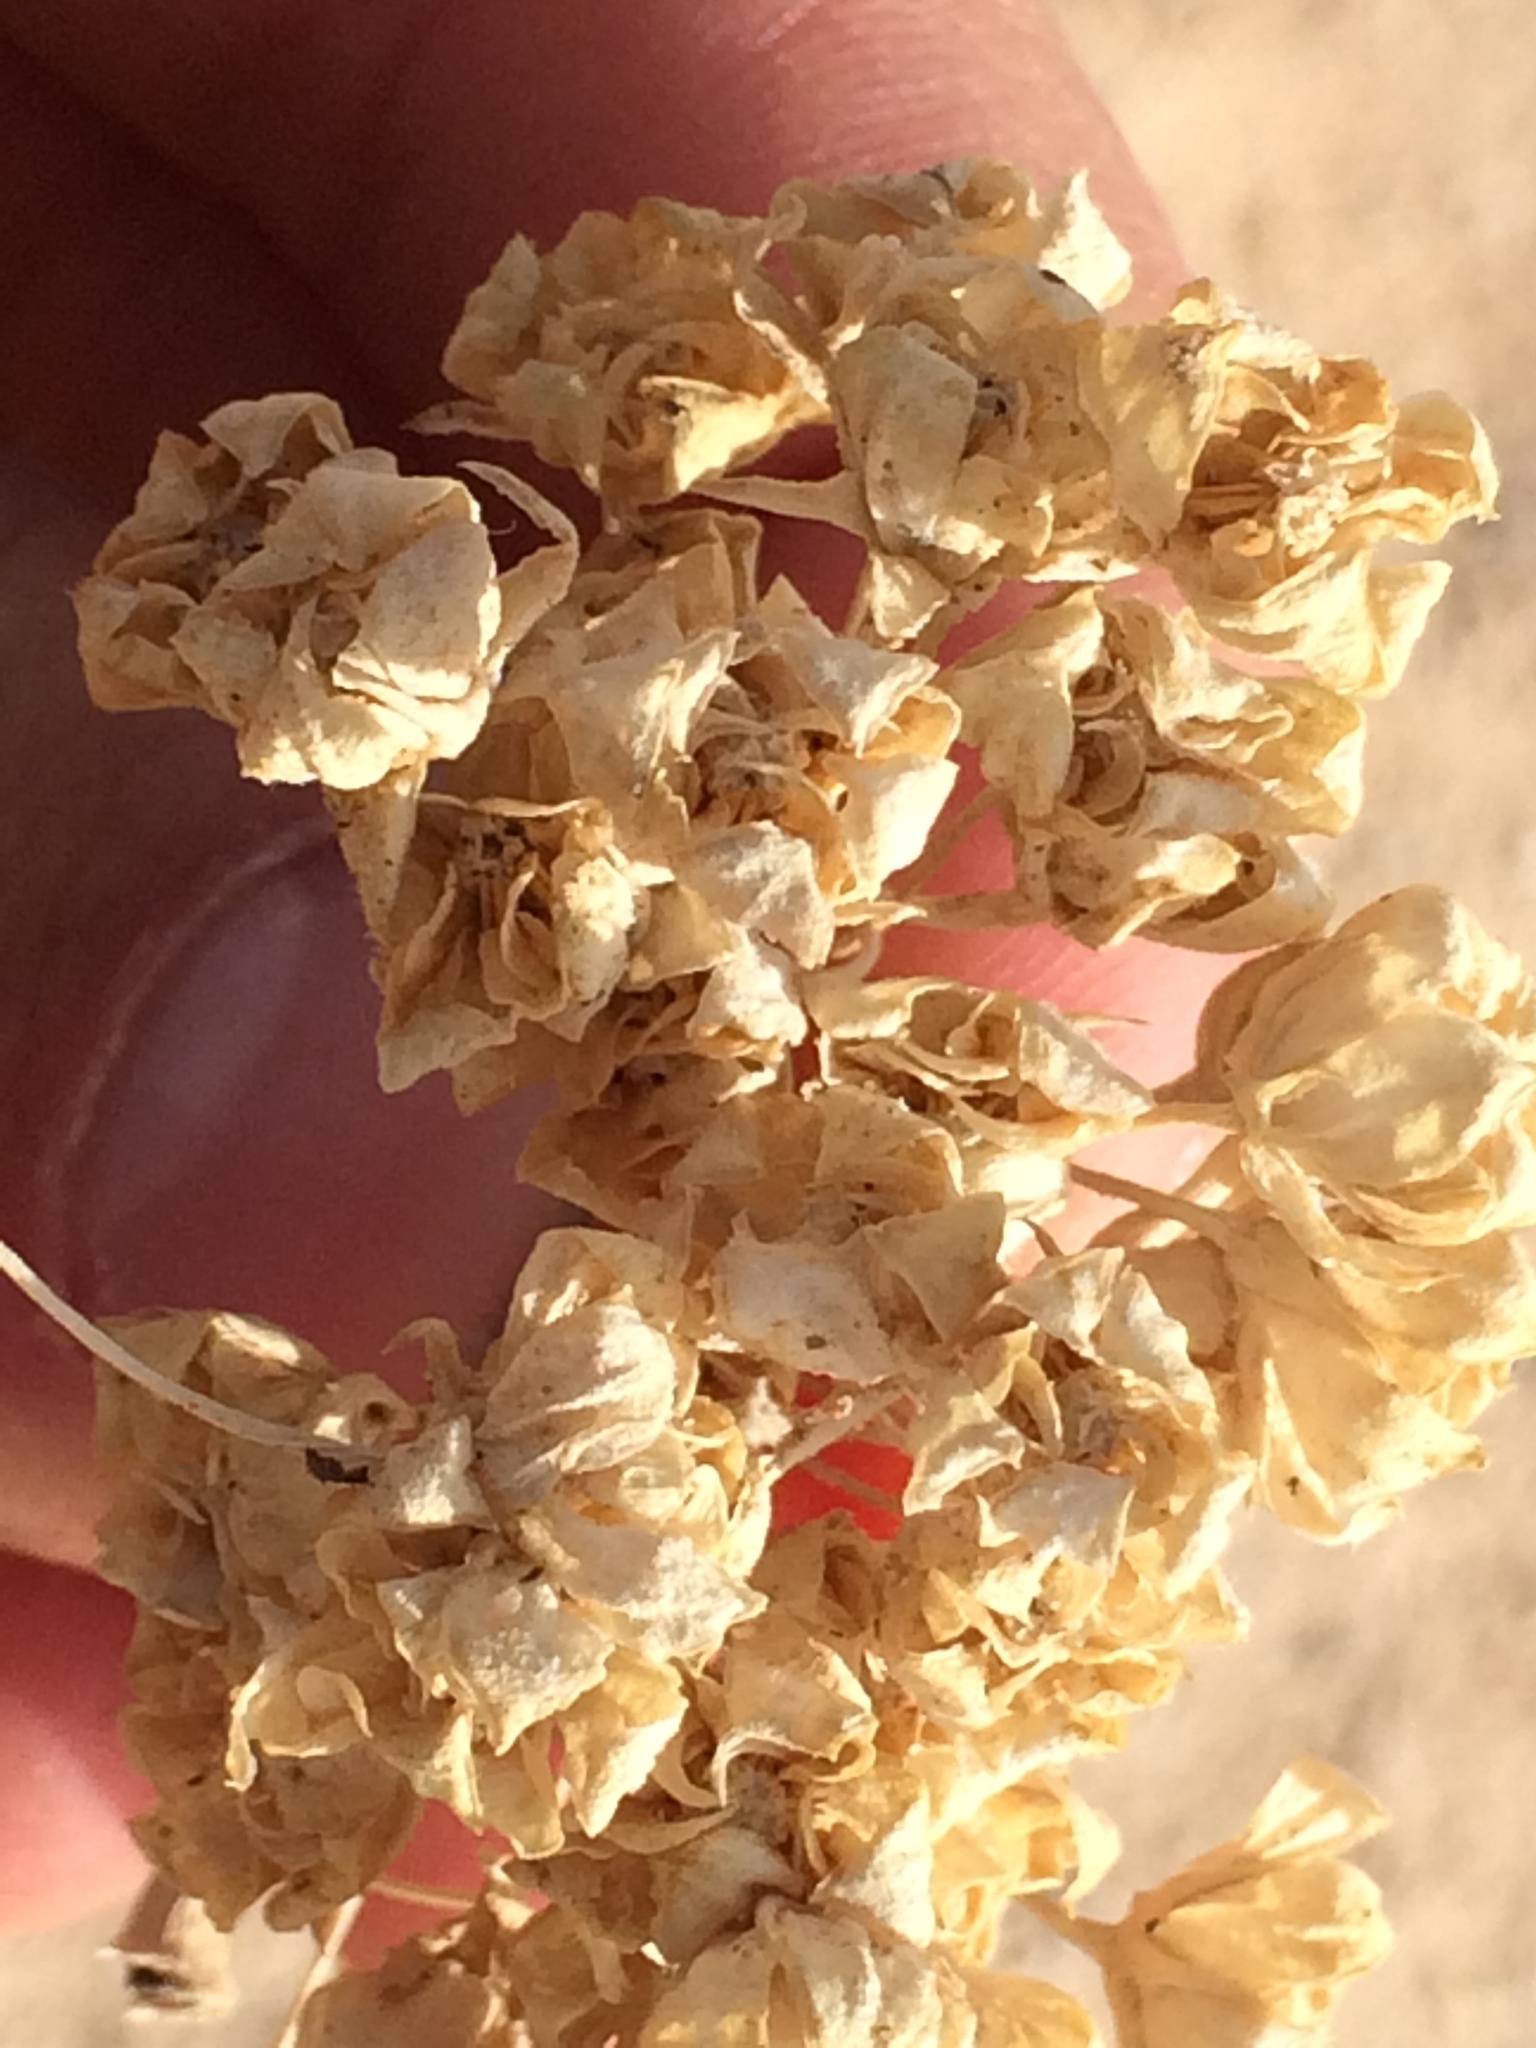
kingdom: Plantae
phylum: Tracheophyta
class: Magnoliopsida
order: Gentianales
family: Apocynaceae
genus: Asclepias
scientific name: Asclepias erosa
